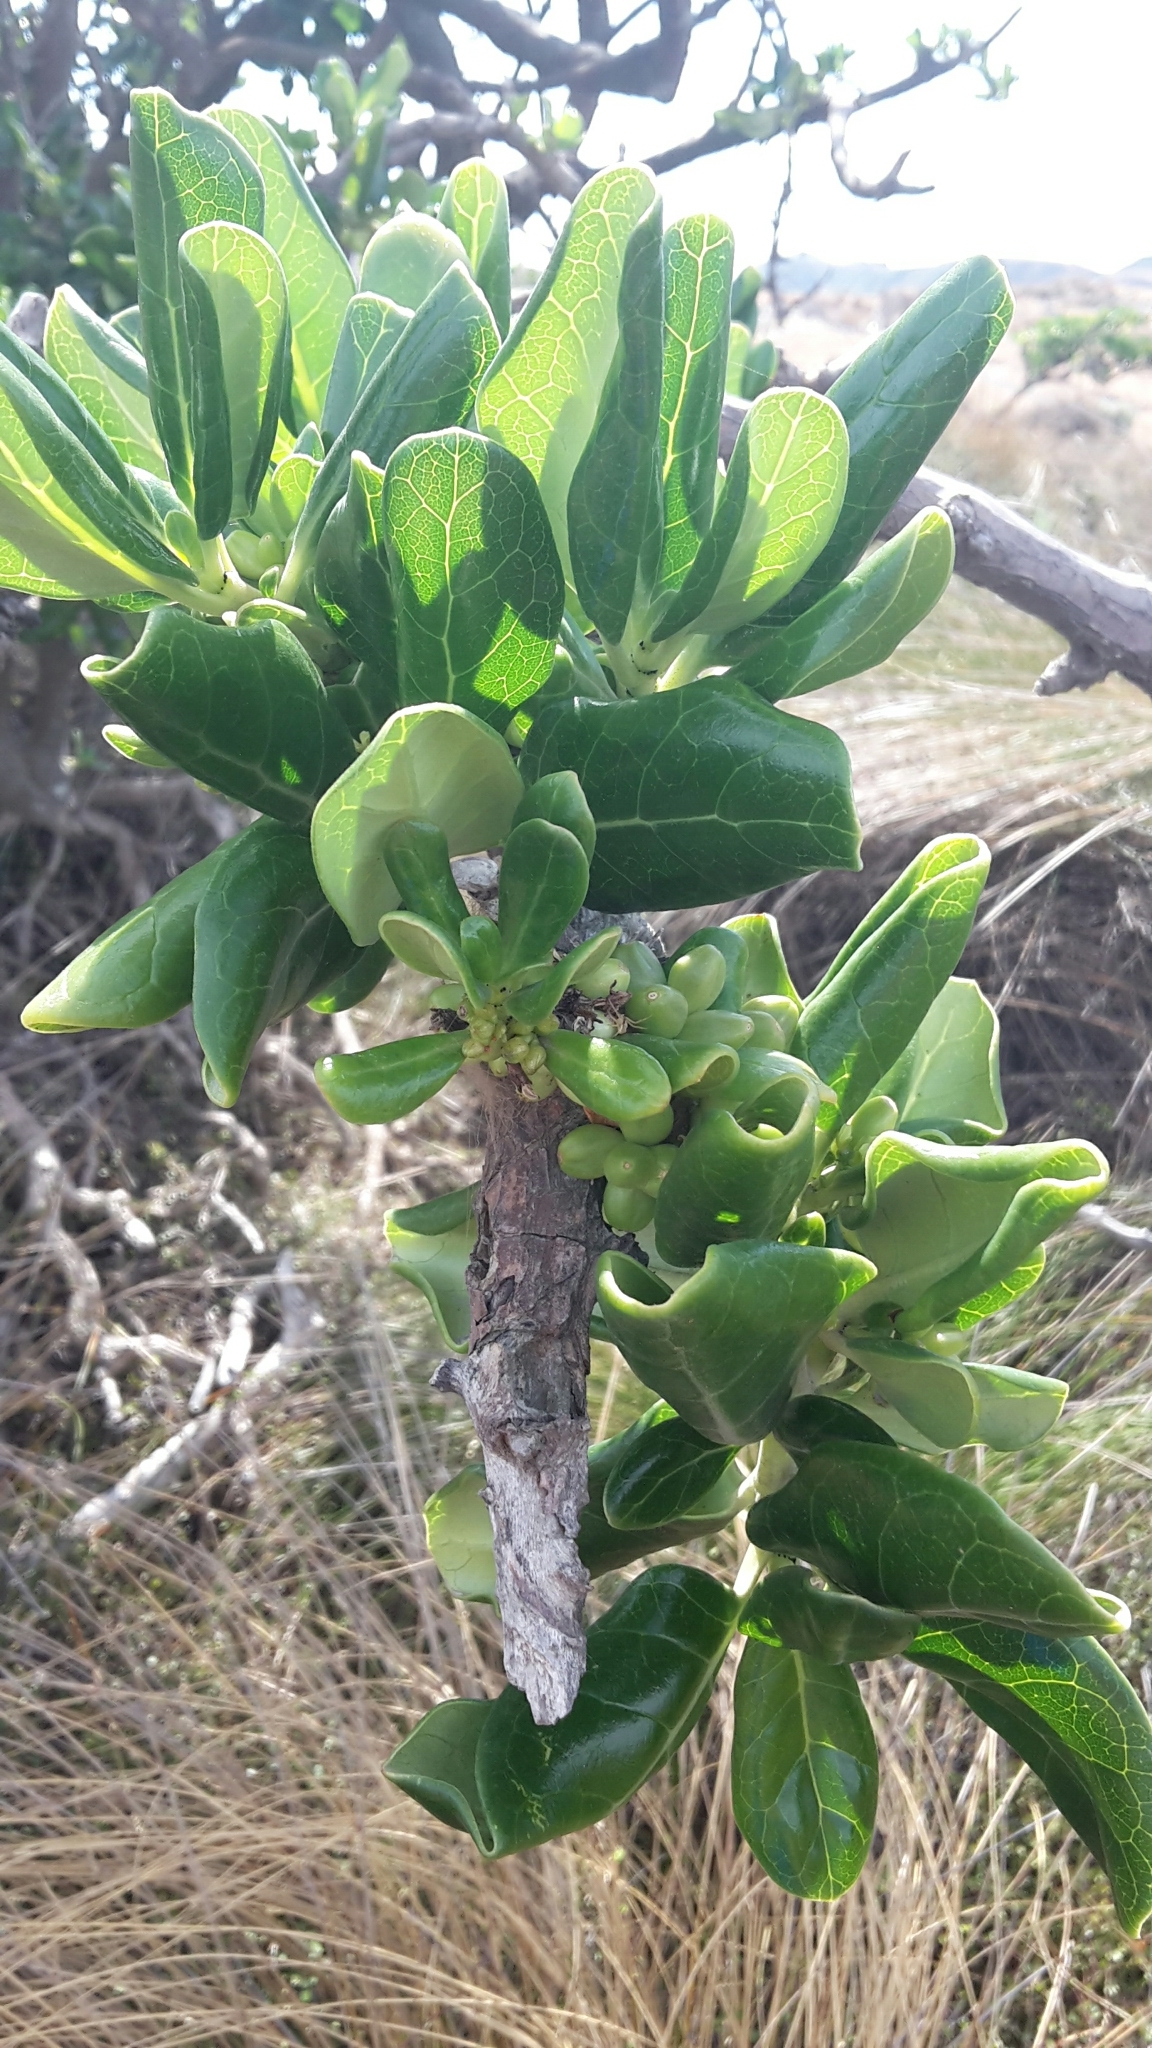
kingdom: Plantae
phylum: Tracheophyta
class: Magnoliopsida
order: Gentianales
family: Rubiaceae
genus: Coprosma
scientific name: Coprosma repens
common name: Tree bedstraw
